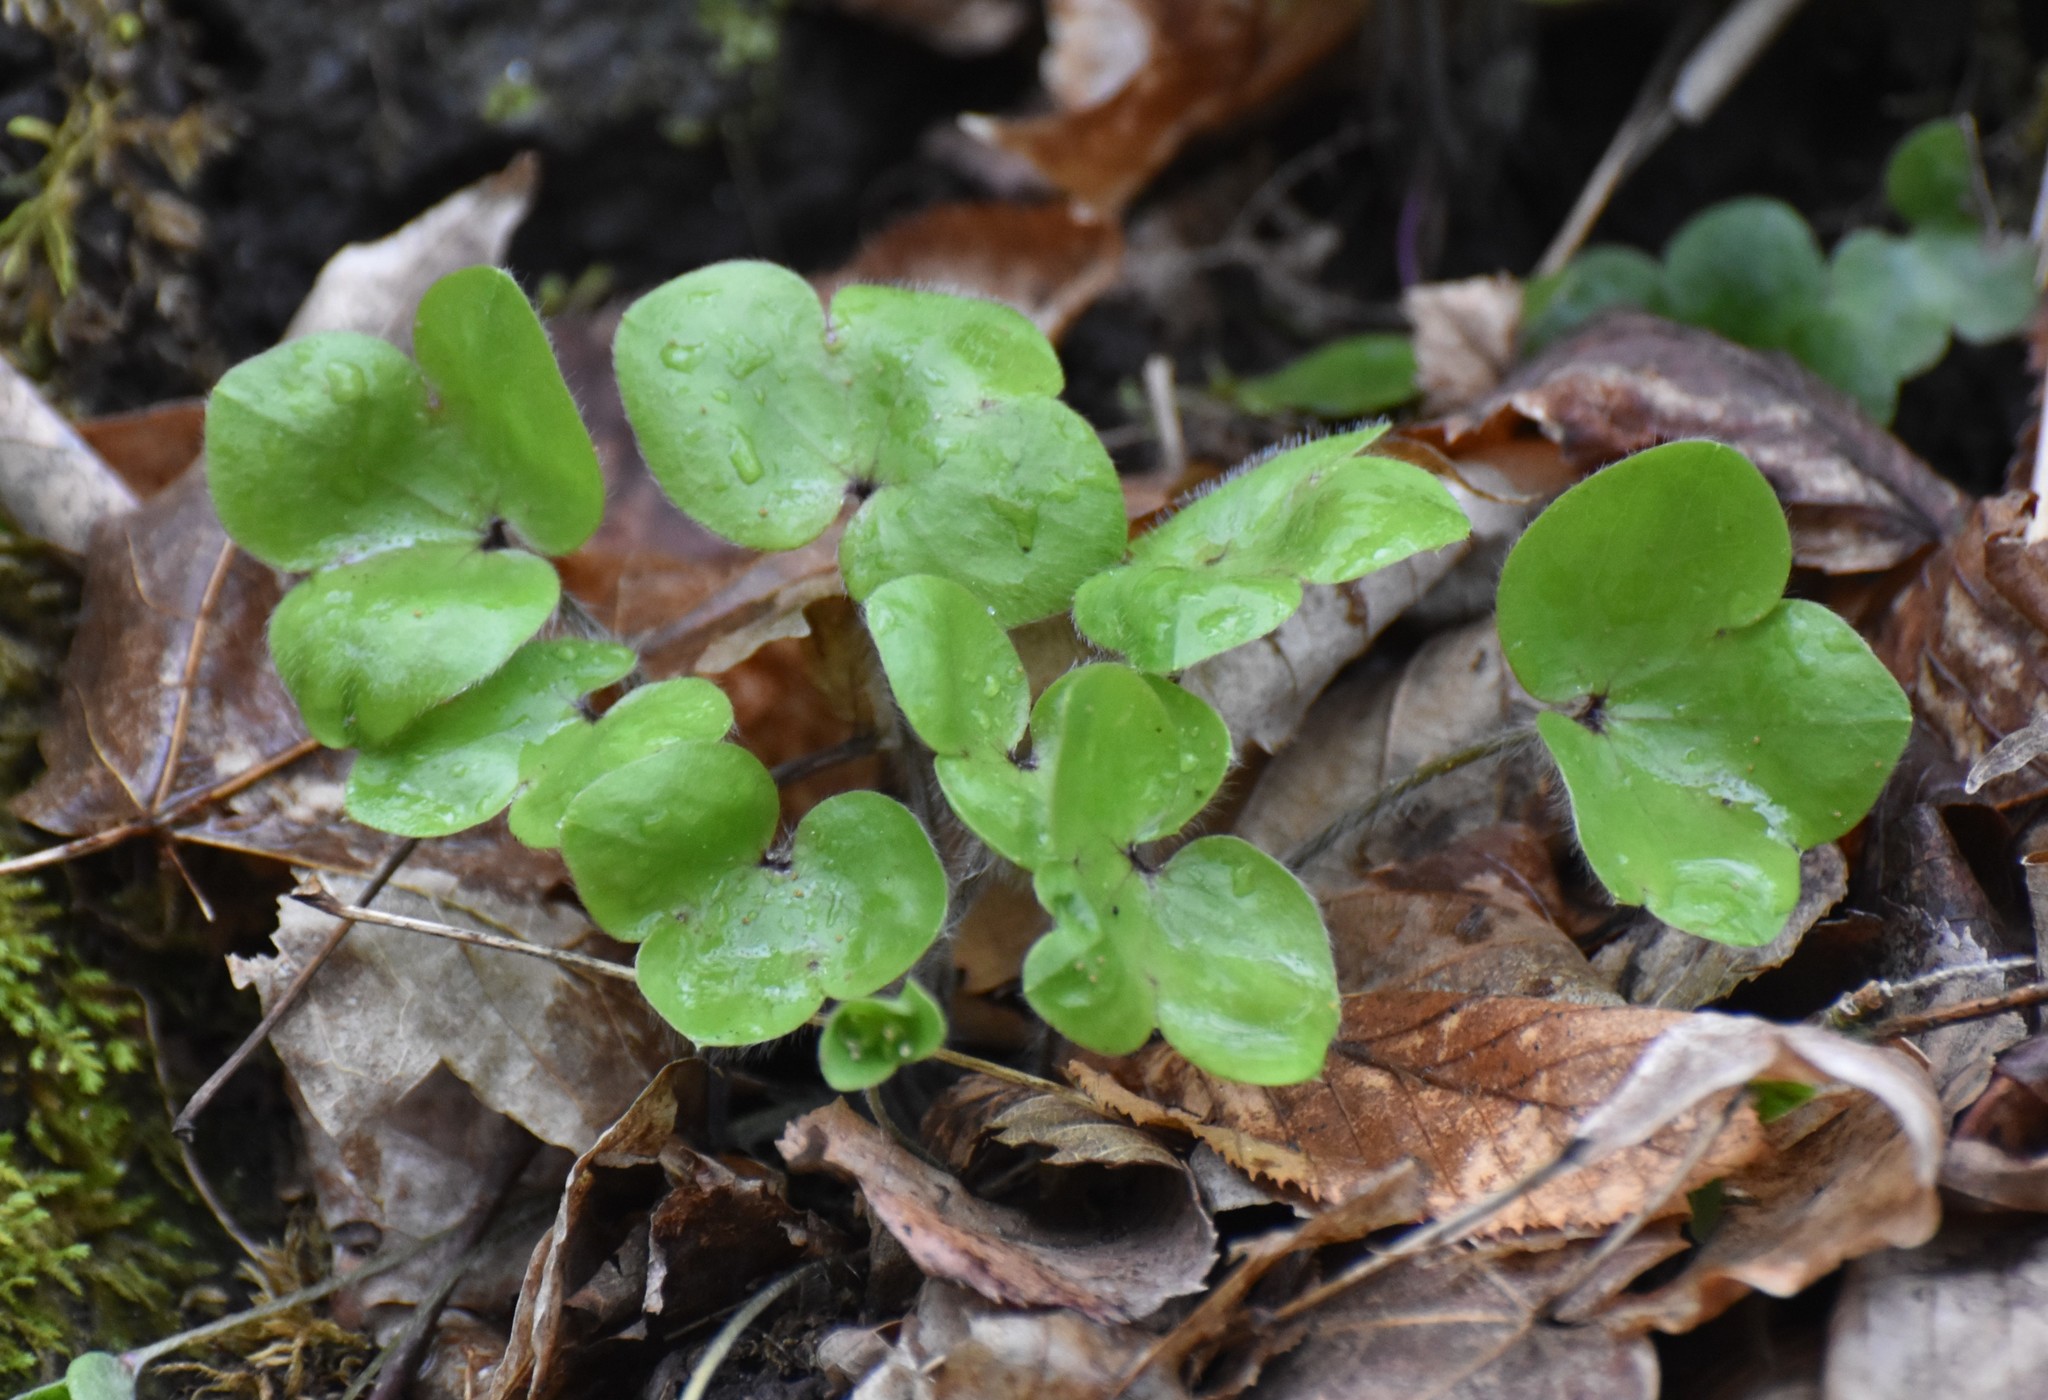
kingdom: Plantae
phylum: Tracheophyta
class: Magnoliopsida
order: Ranunculales
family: Ranunculaceae
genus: Hepatica
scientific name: Hepatica americana
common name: American hepatica
